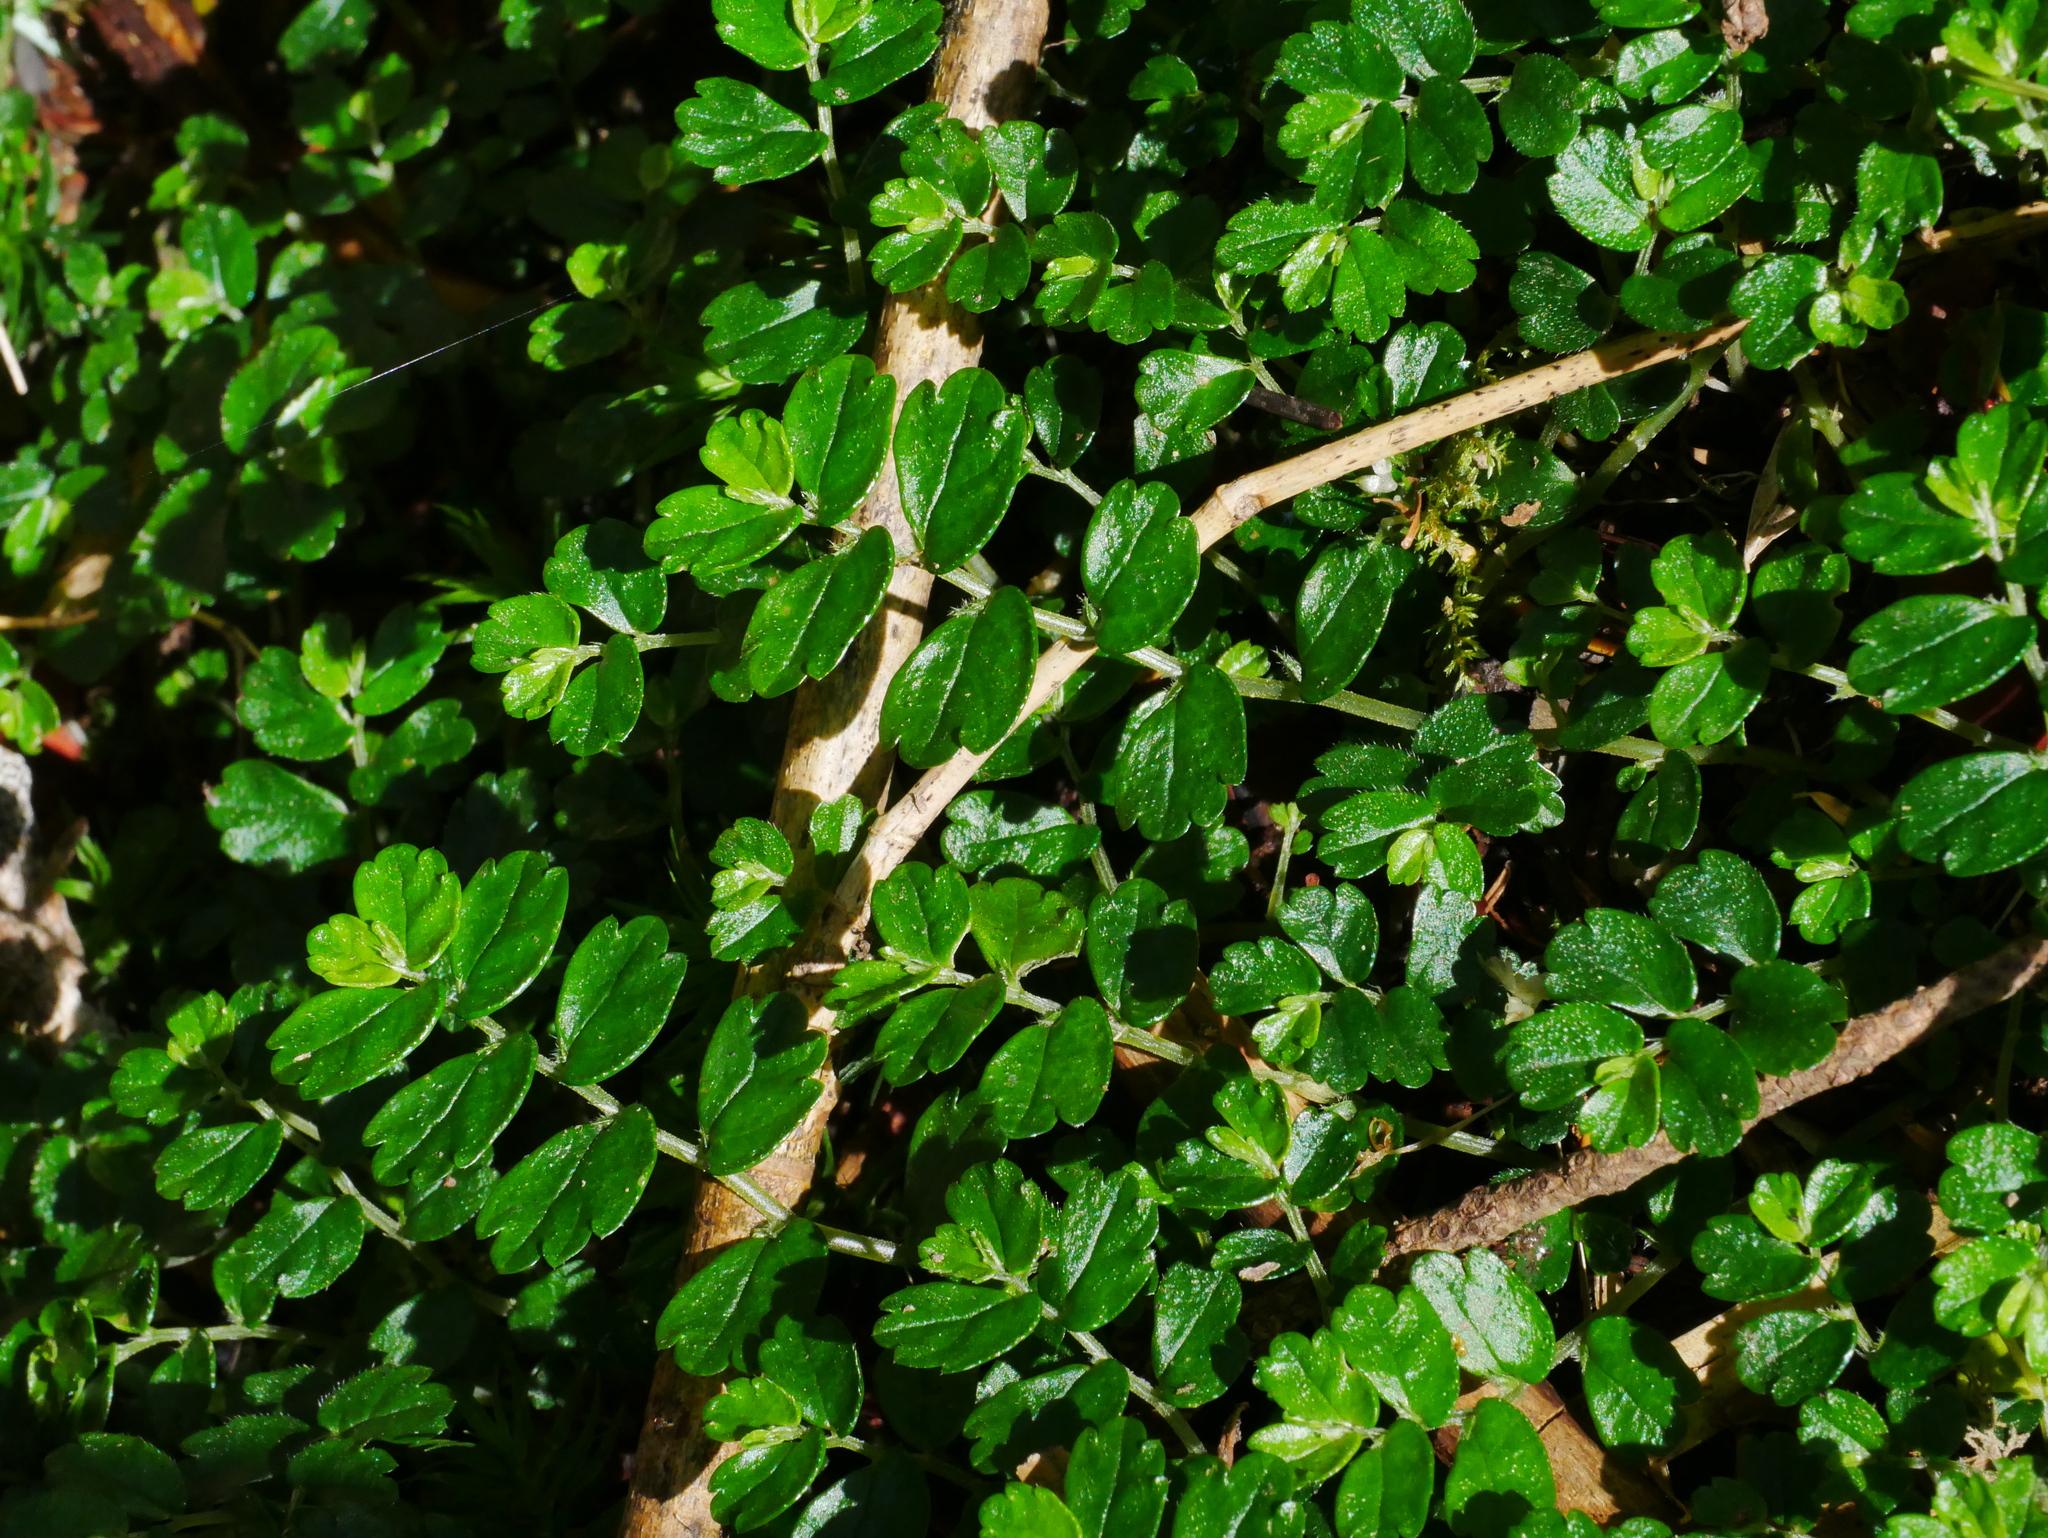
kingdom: Plantae
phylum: Tracheophyta
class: Magnoliopsida
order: Rosales
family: Urticaceae
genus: Elatostema
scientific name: Elatostema obtusum
